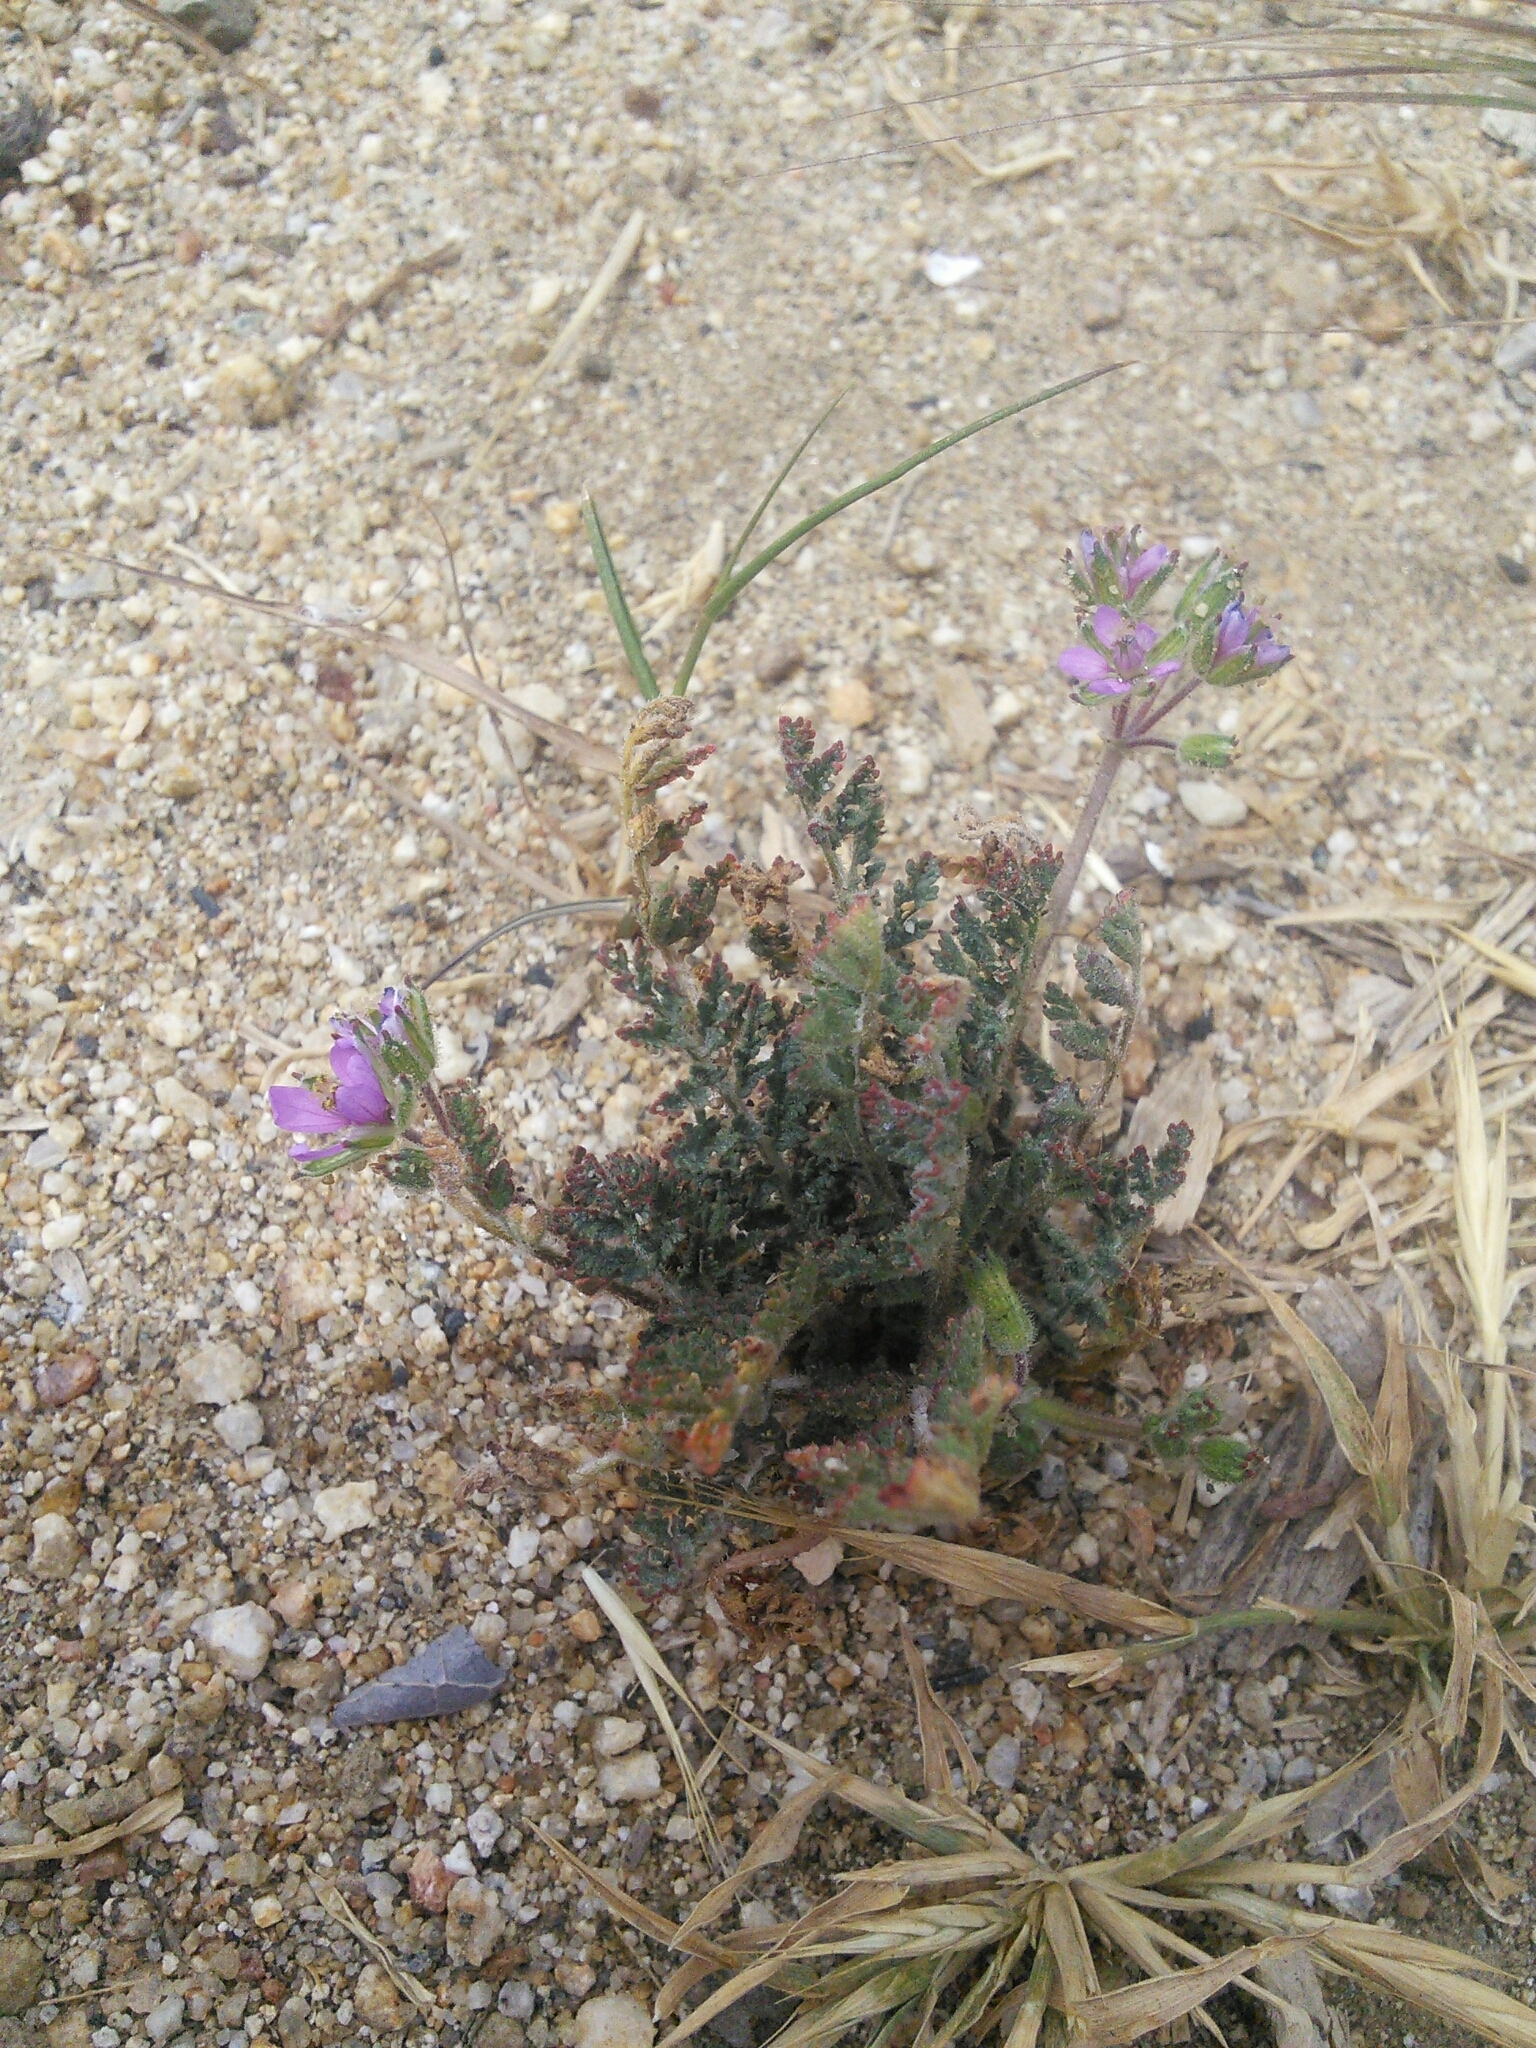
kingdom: Plantae
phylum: Tracheophyta
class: Magnoliopsida
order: Geraniales
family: Geraniaceae
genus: Erodium
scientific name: Erodium cicutarium
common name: Common stork's-bill
